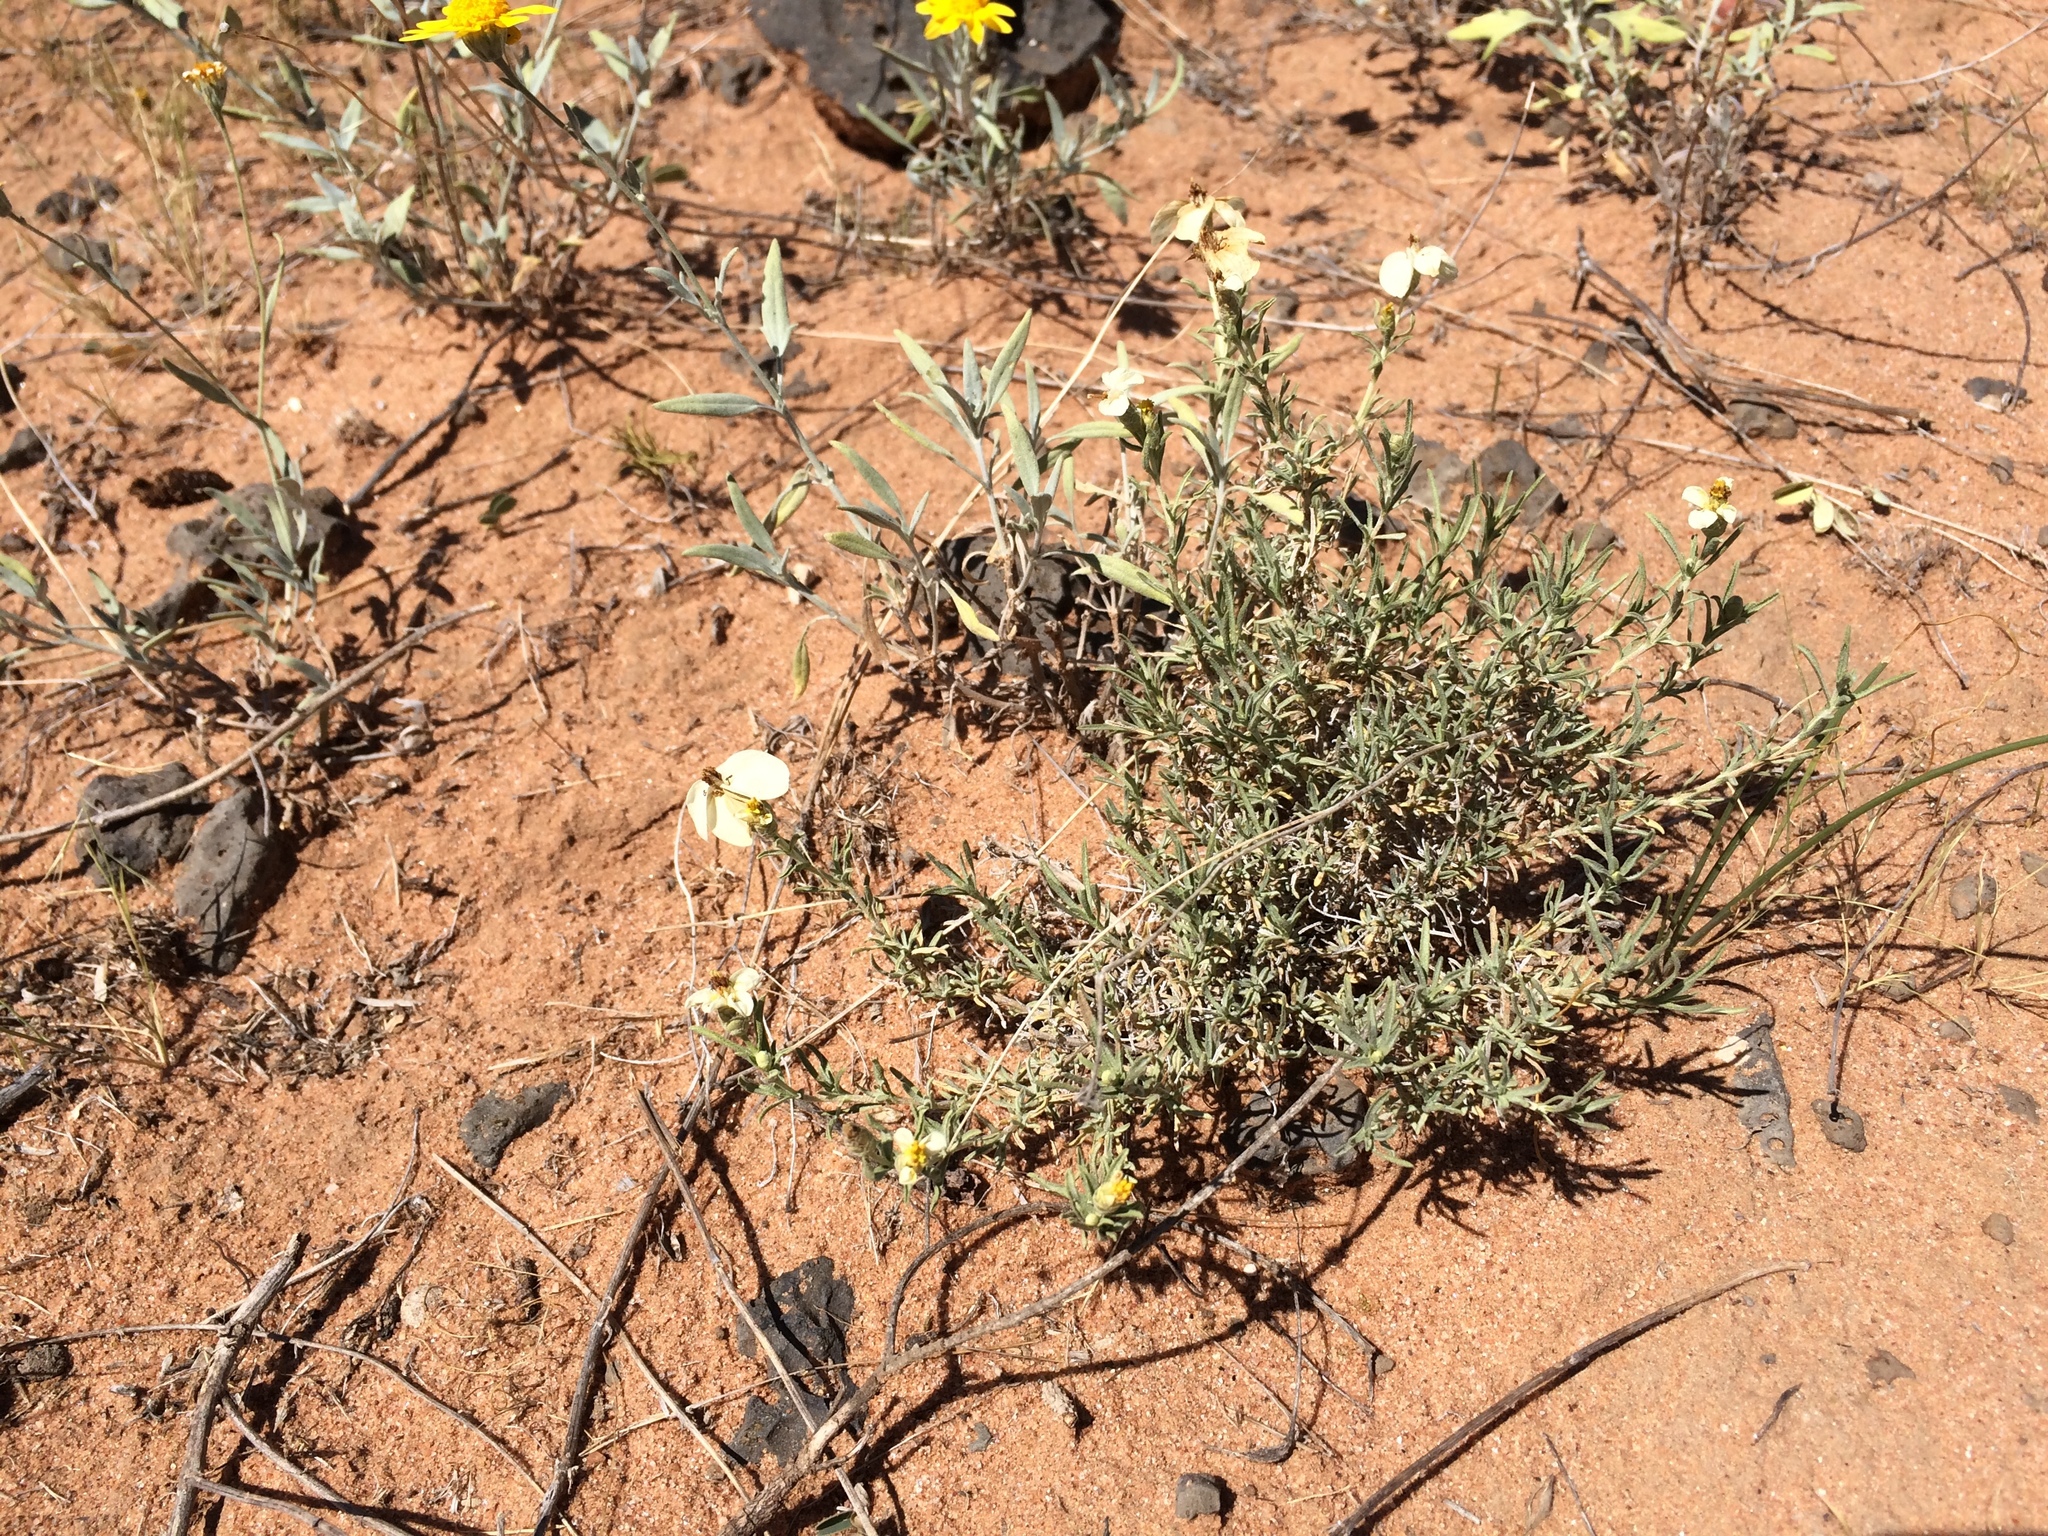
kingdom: Plantae
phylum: Tracheophyta
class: Magnoliopsida
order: Asterales
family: Asteraceae
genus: Zinnia
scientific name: Zinnia acerosa
